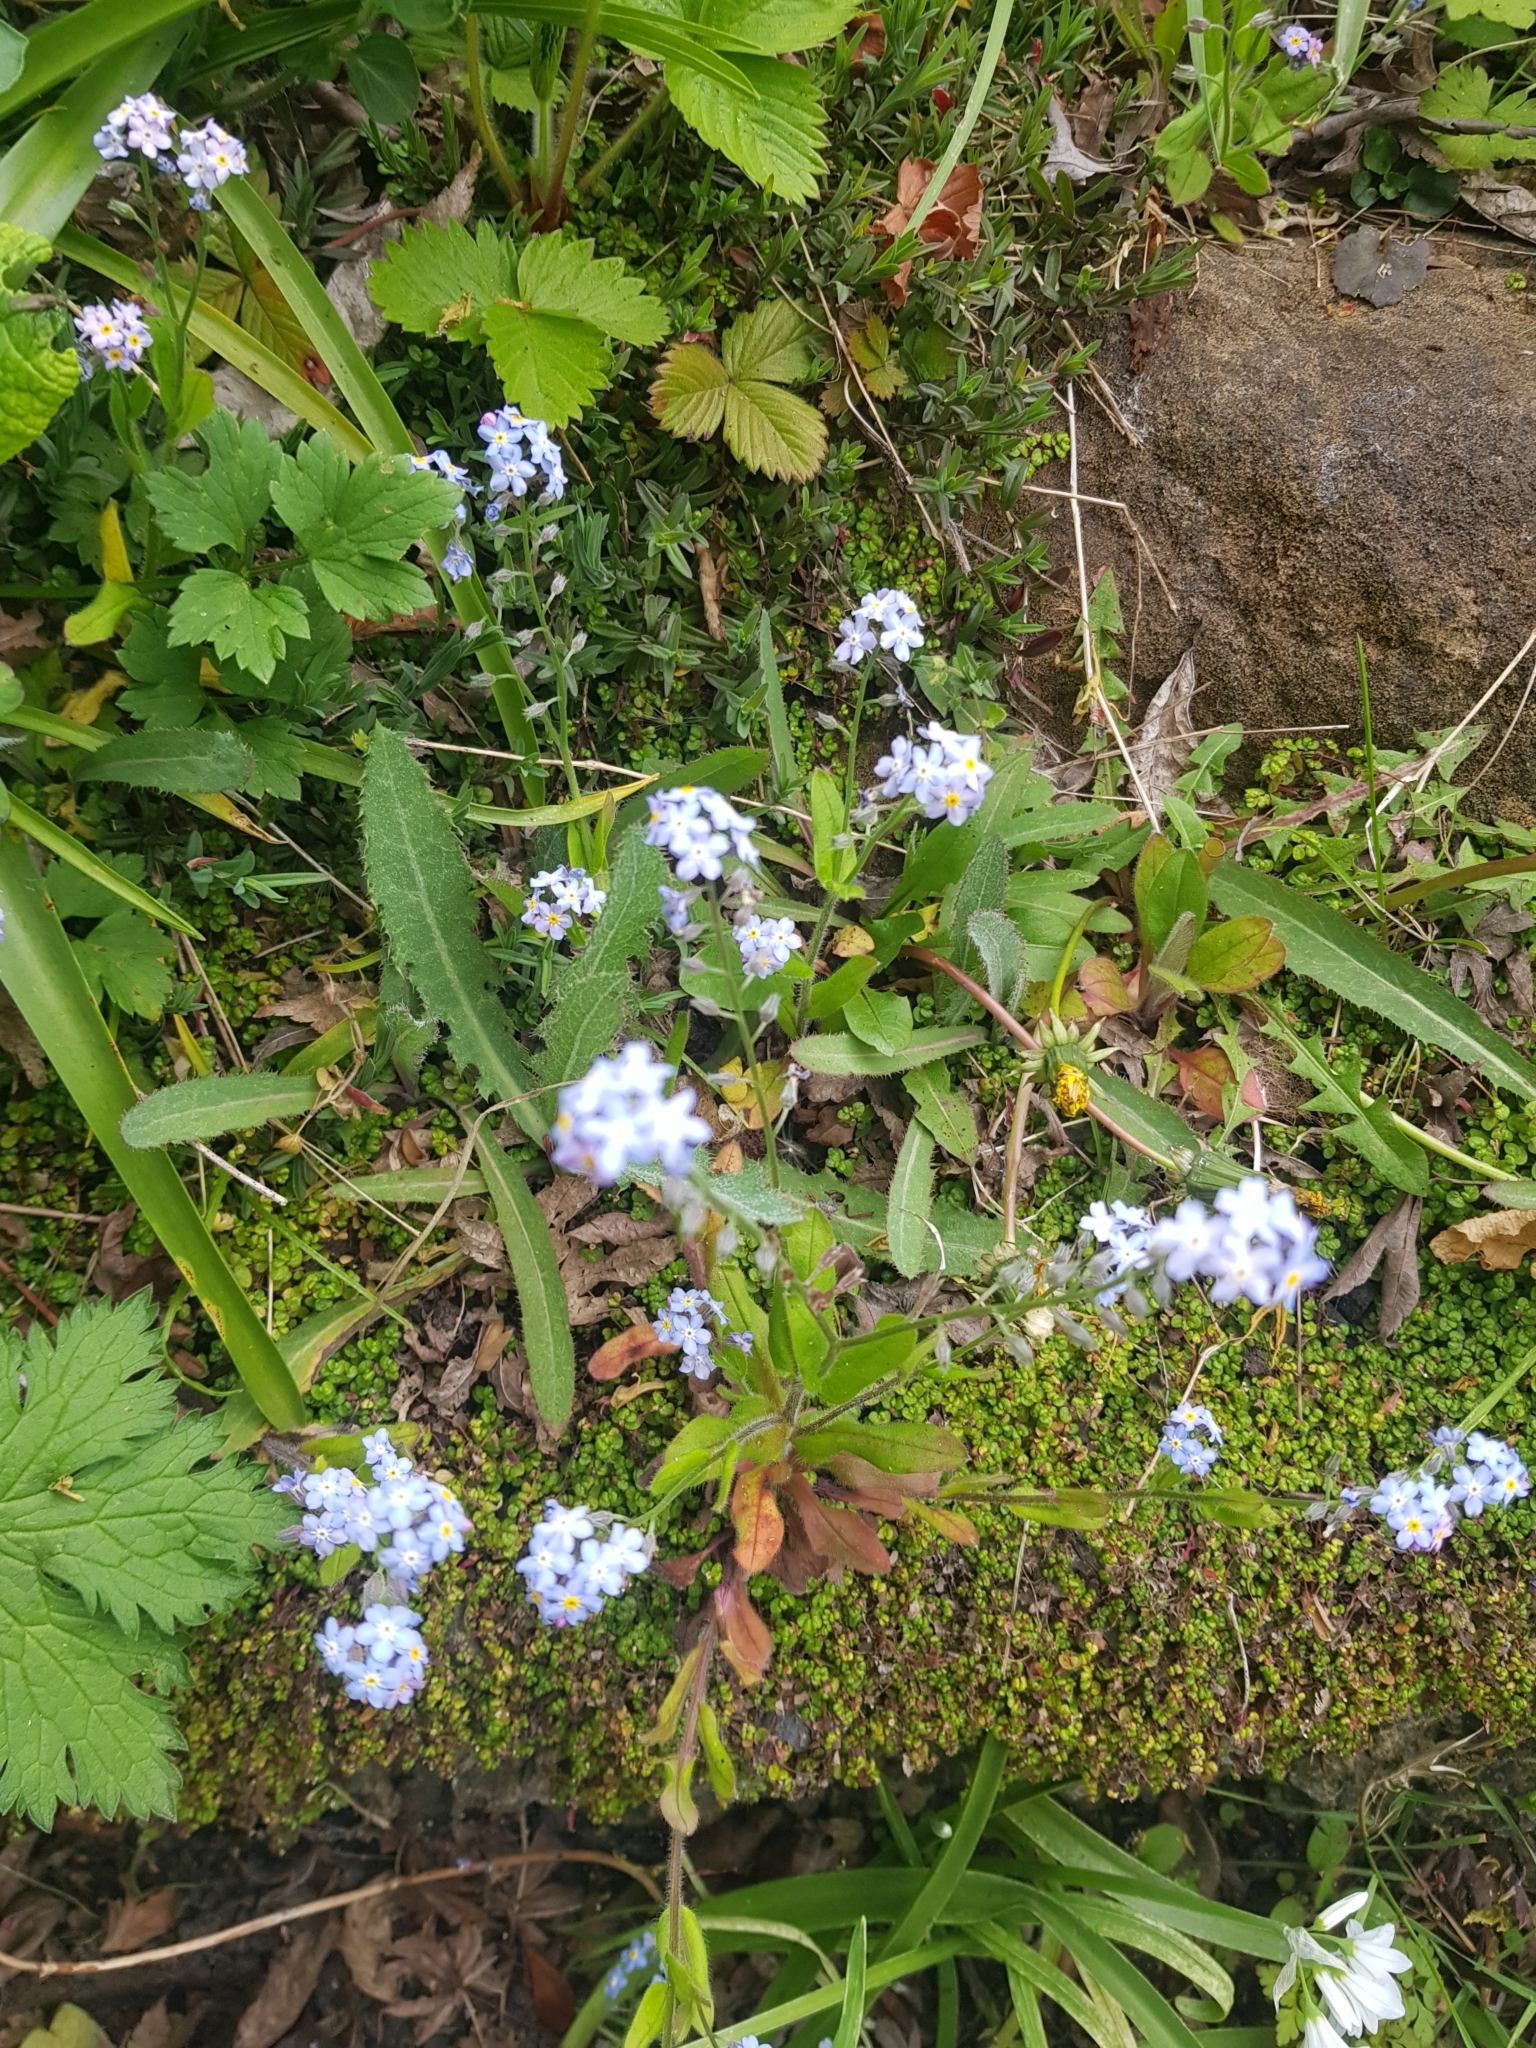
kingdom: Plantae
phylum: Tracheophyta
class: Magnoliopsida
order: Boraginales
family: Boraginaceae
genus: Myosotis
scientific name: Myosotis sylvatica
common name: Wood forget-me-not
